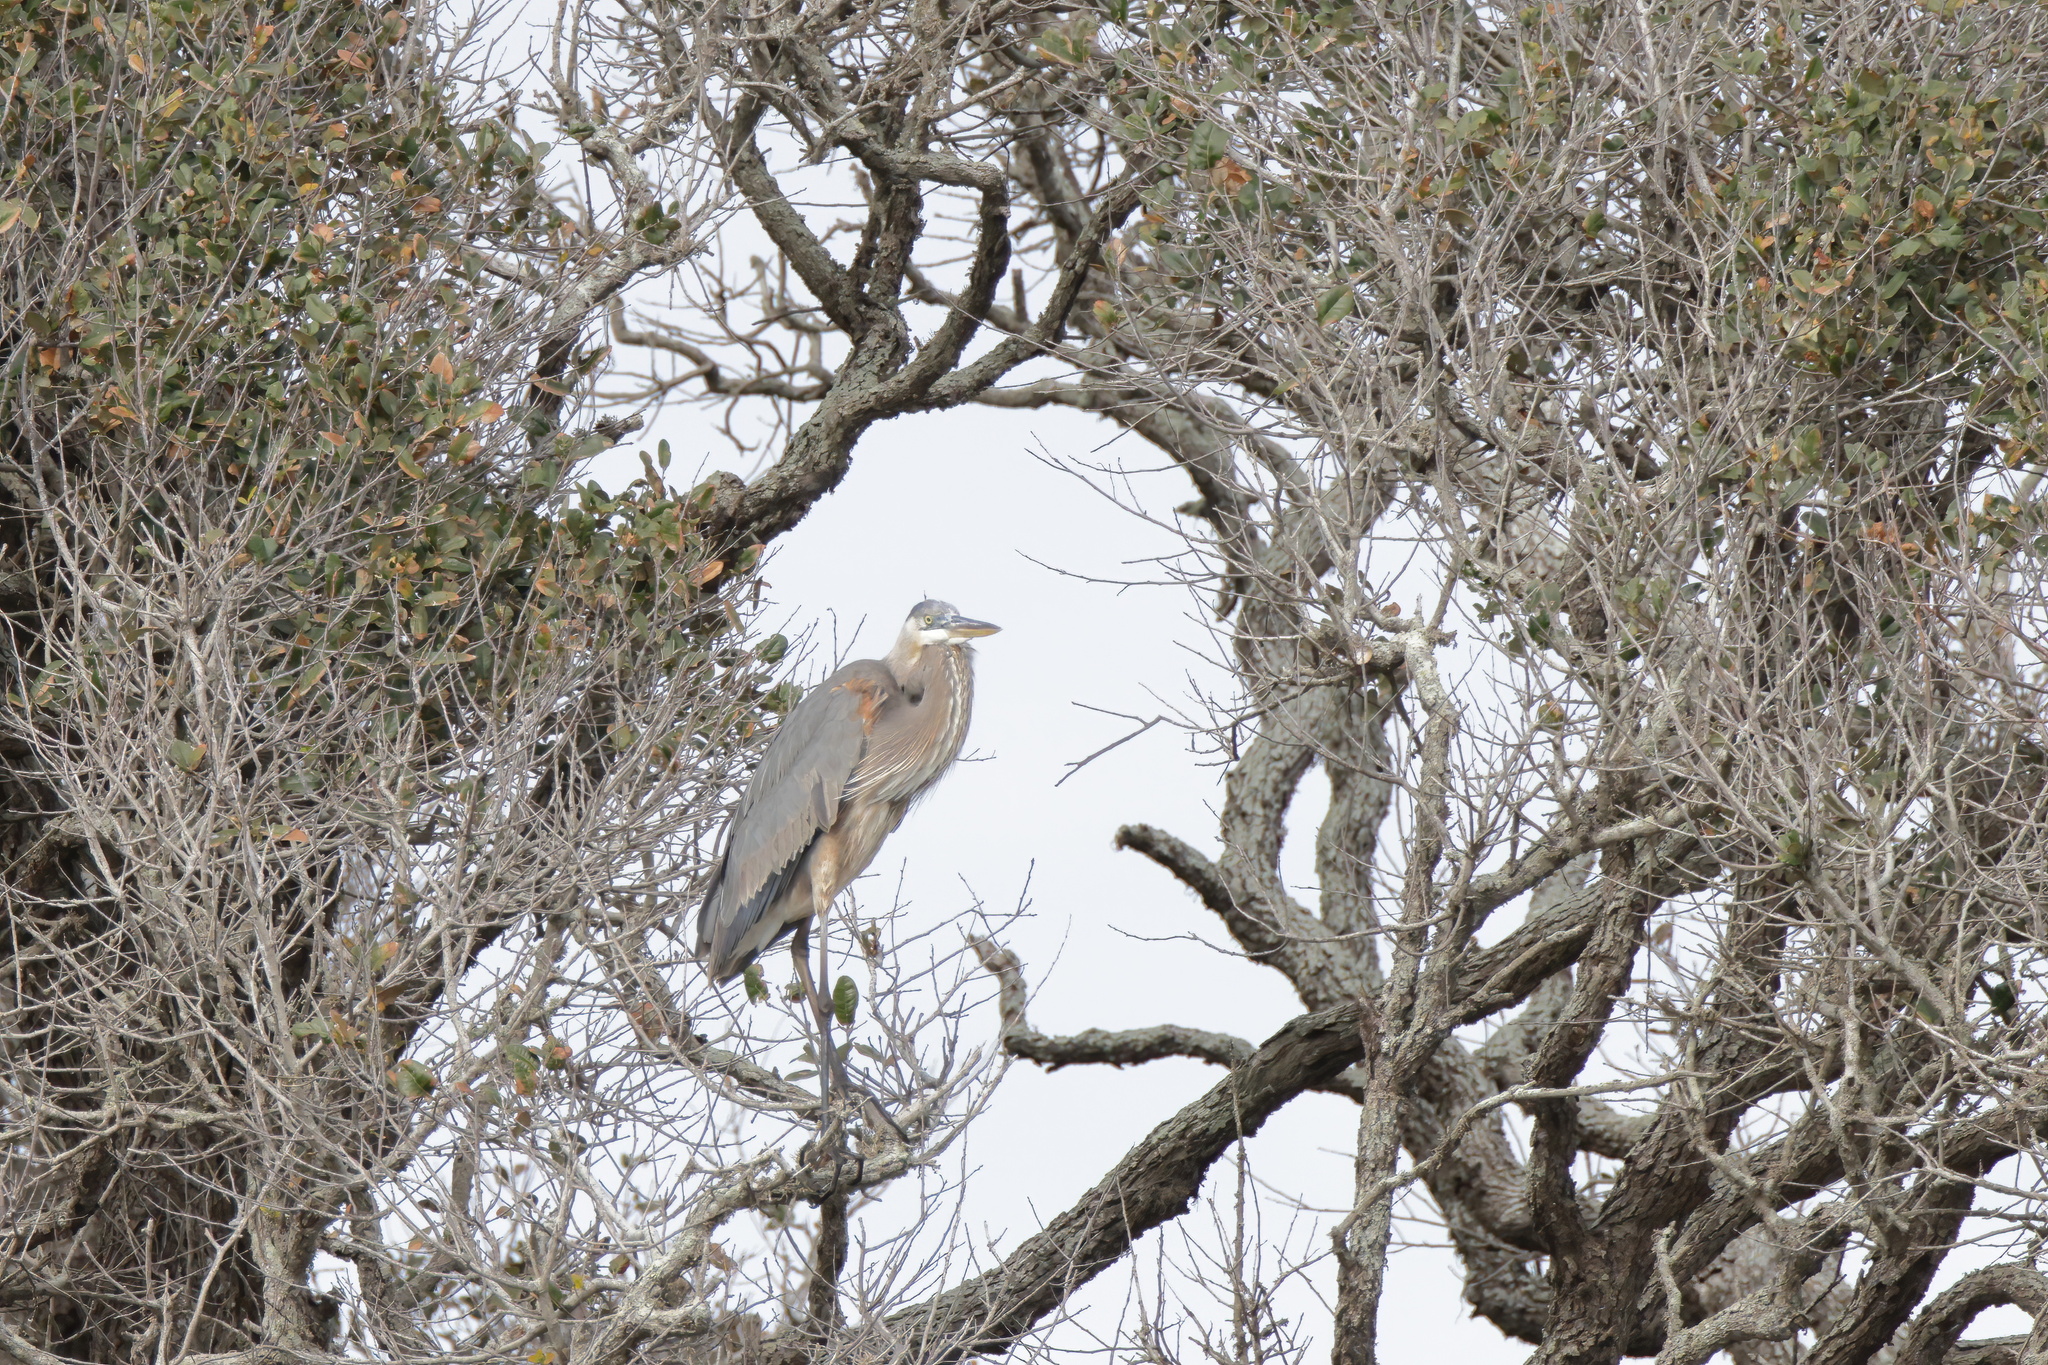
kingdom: Animalia
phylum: Chordata
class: Aves
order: Pelecaniformes
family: Ardeidae
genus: Ardea
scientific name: Ardea herodias
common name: Great blue heron
